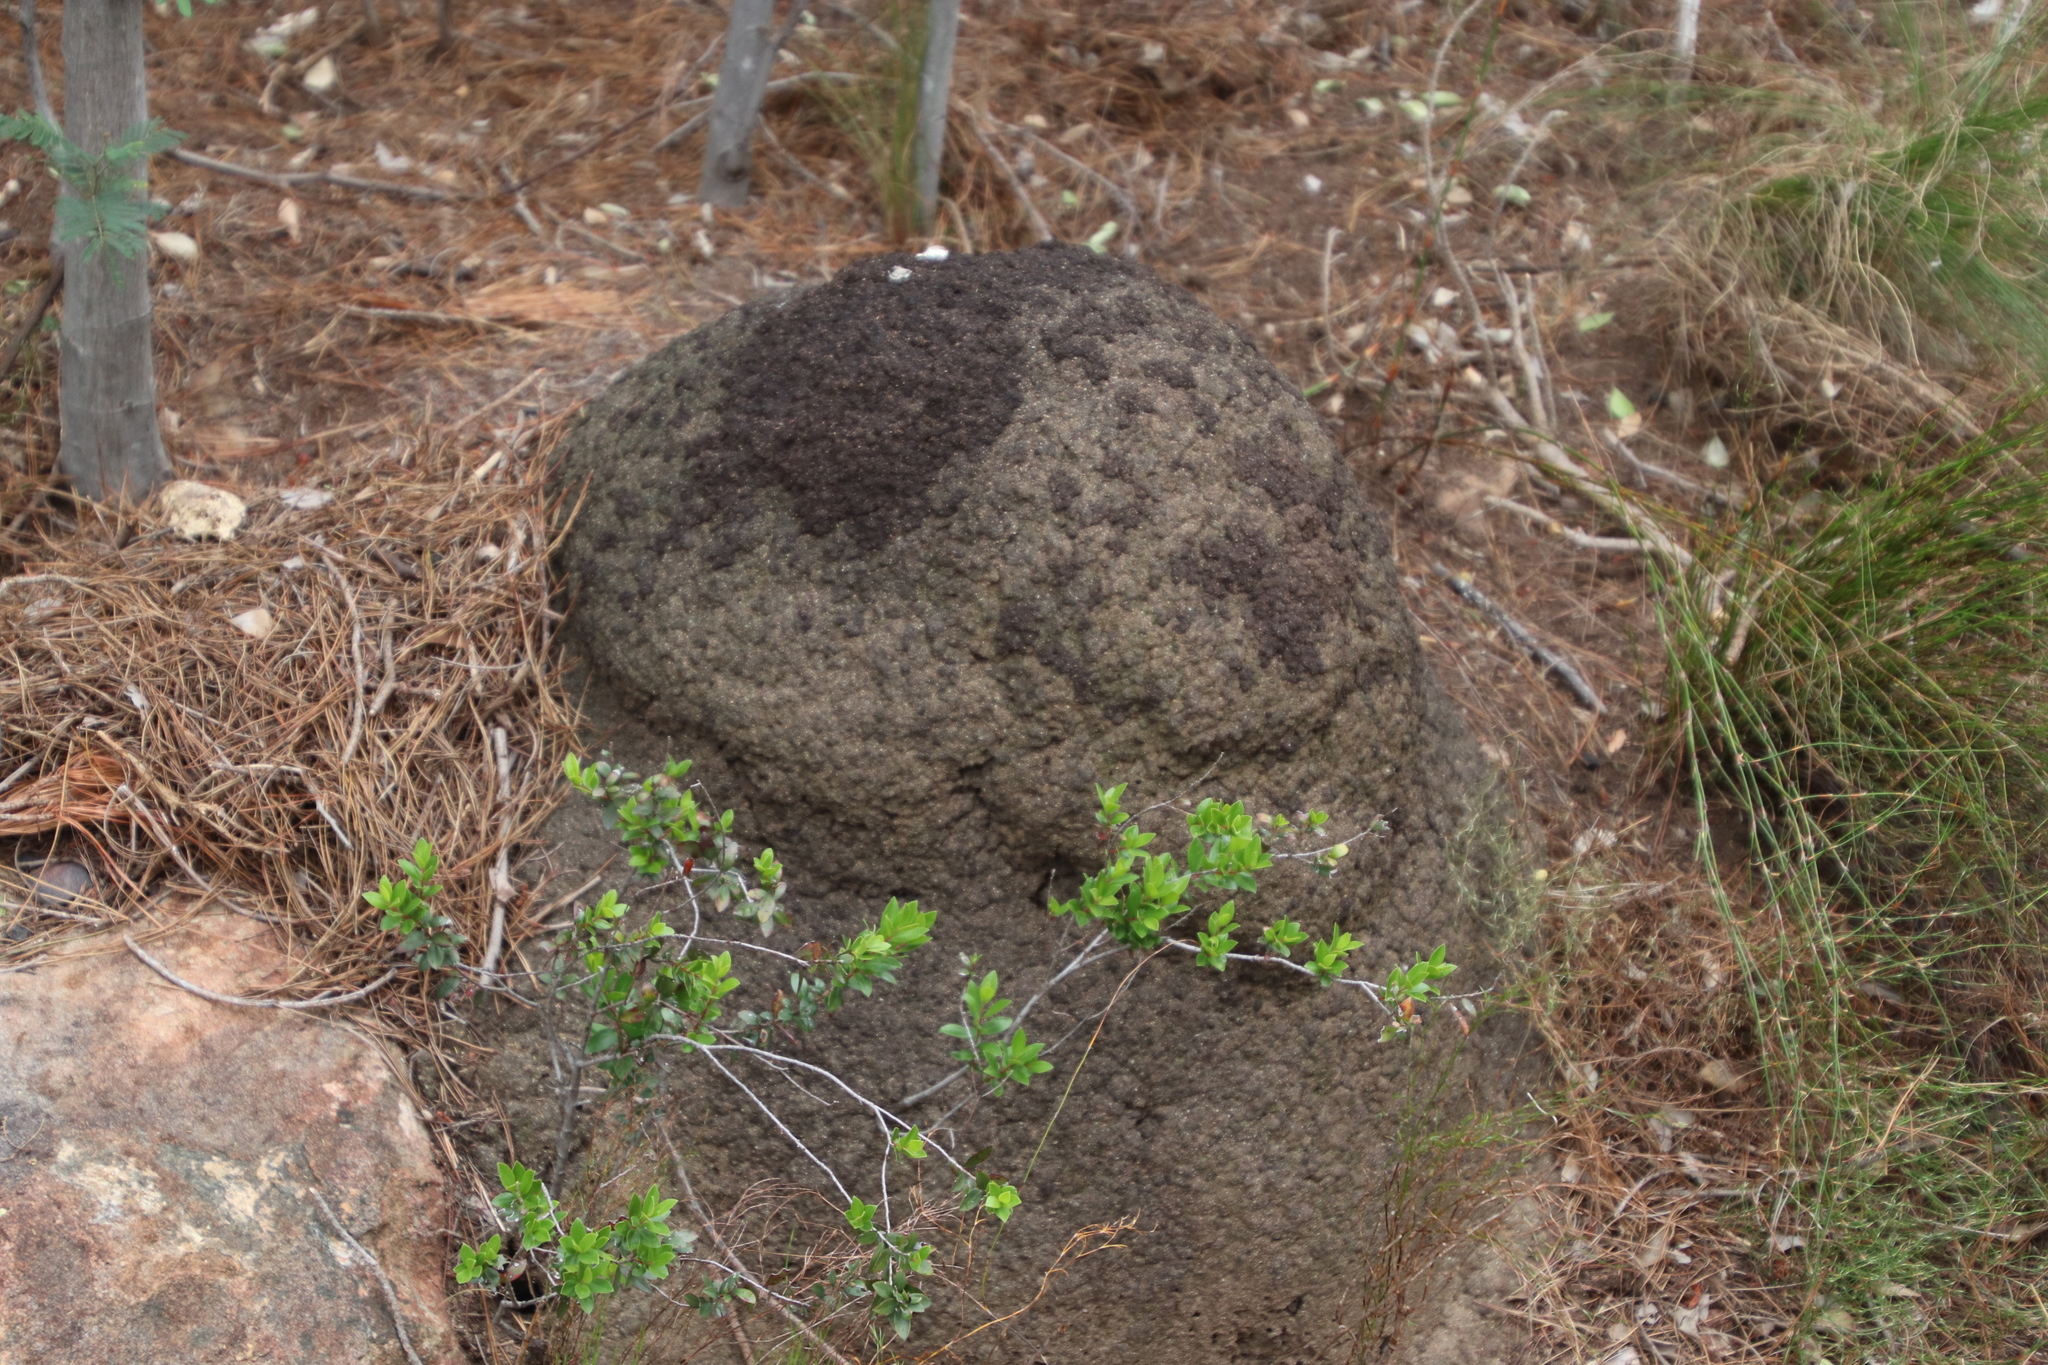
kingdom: Animalia
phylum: Arthropoda
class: Insecta
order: Blattodea
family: Termitidae
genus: Amitermes
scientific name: Amitermes hastatus
